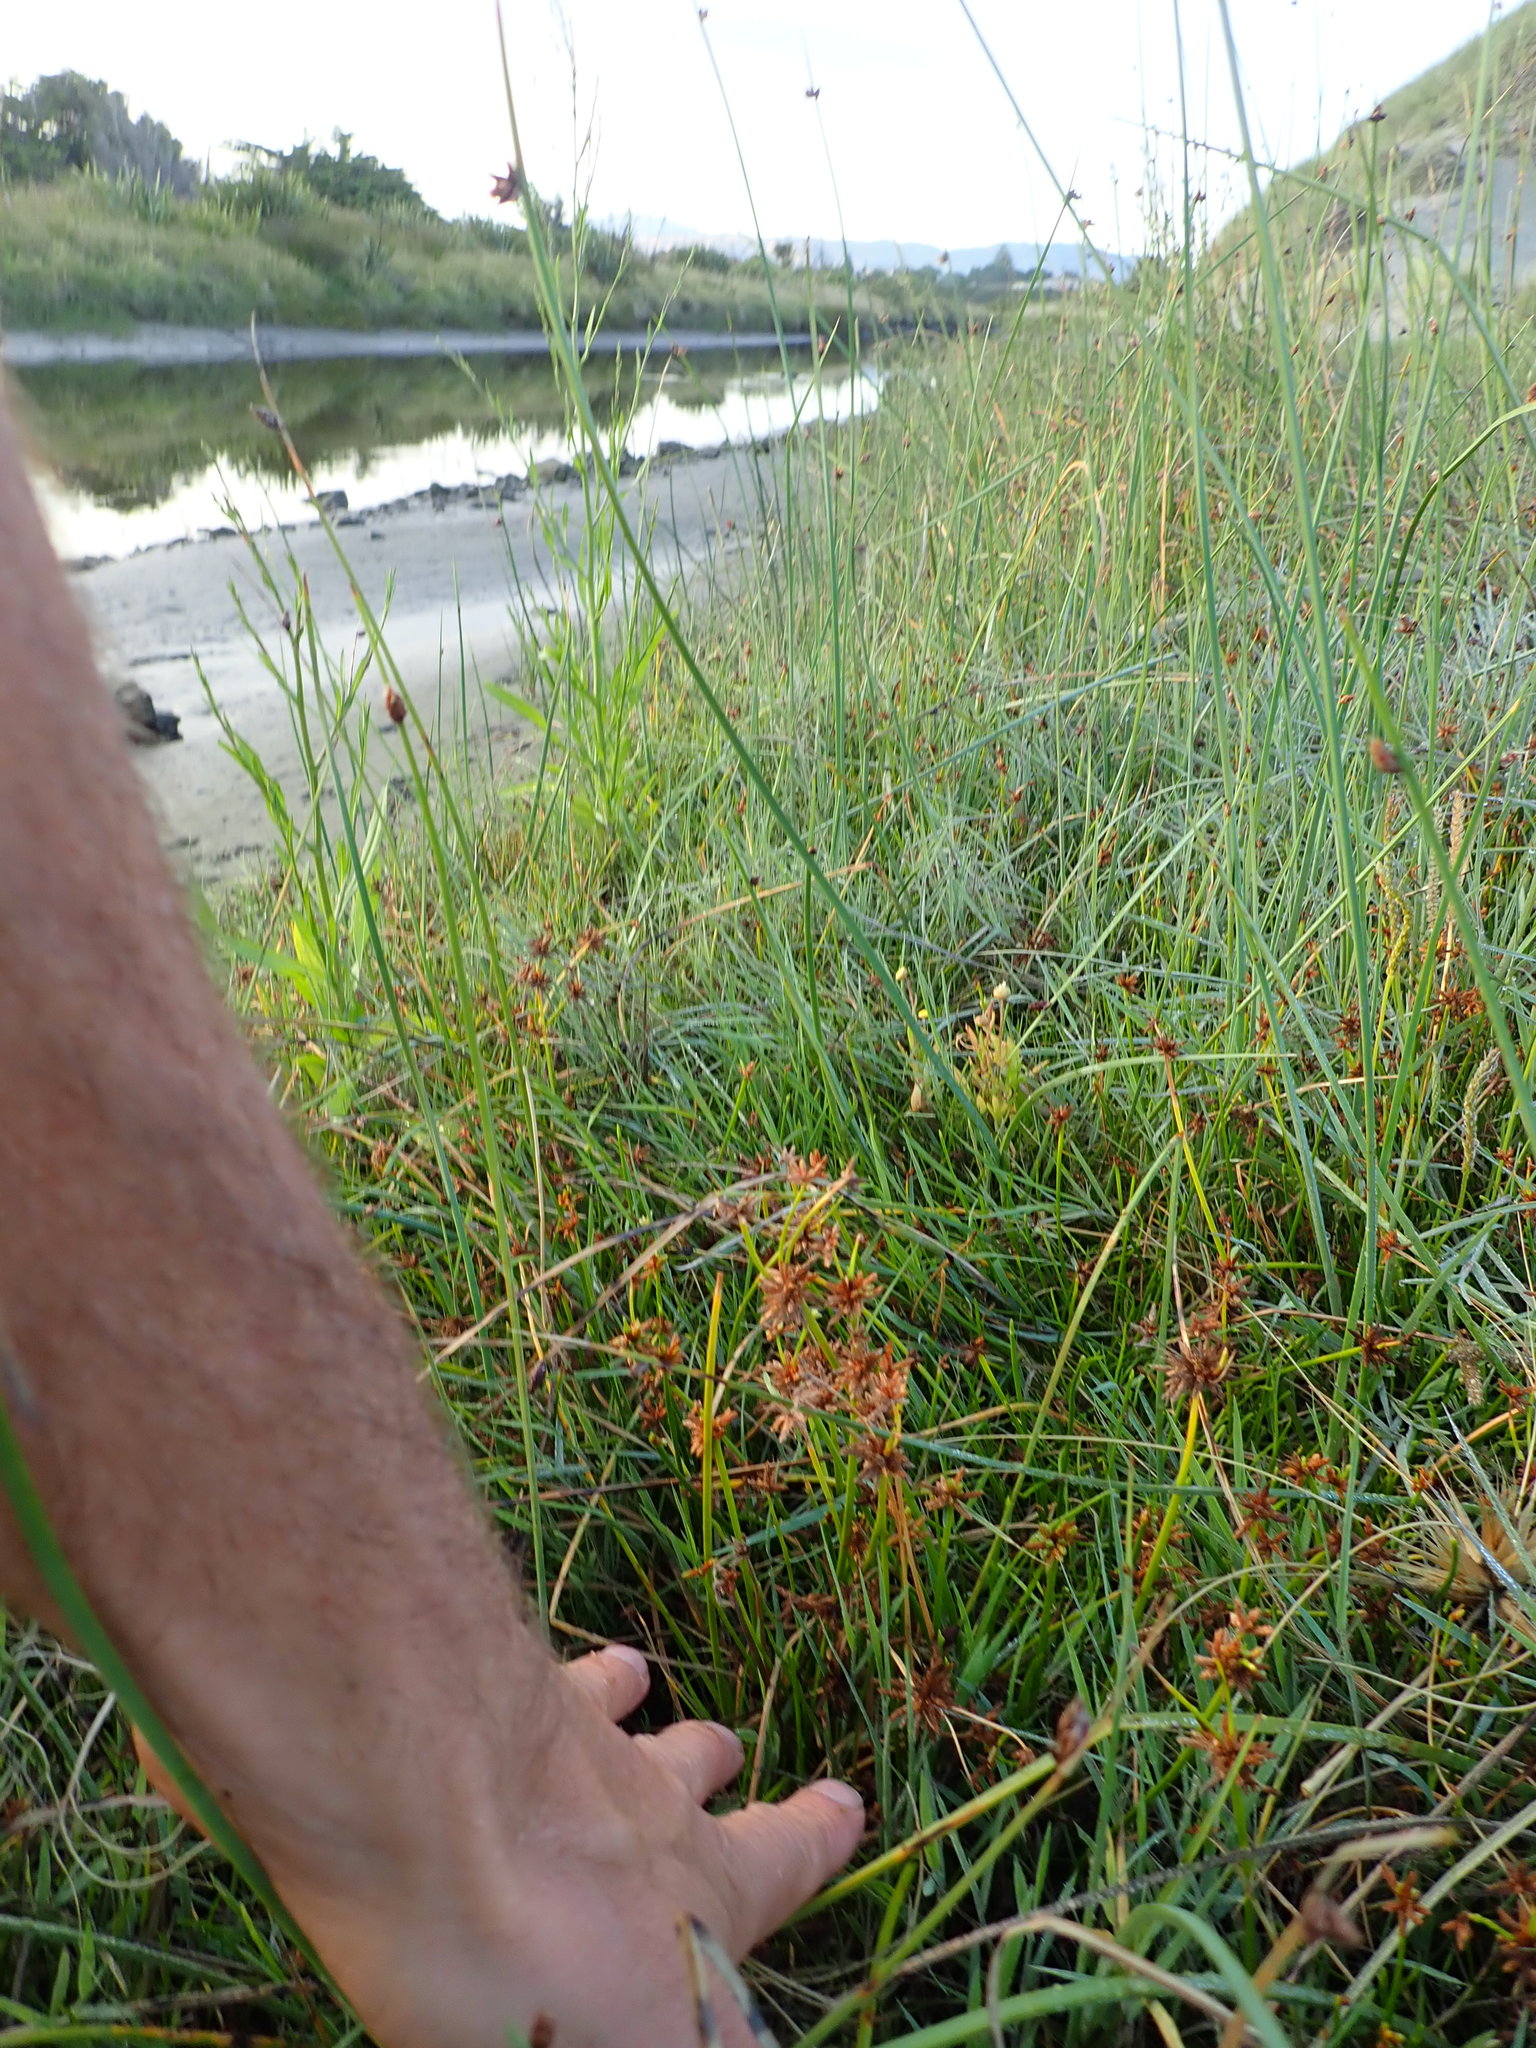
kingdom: Plantae
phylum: Tracheophyta
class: Liliopsida
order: Poales
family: Cyperaceae
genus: Cyperus
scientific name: Cyperus congestus
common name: Dense flat sedge
